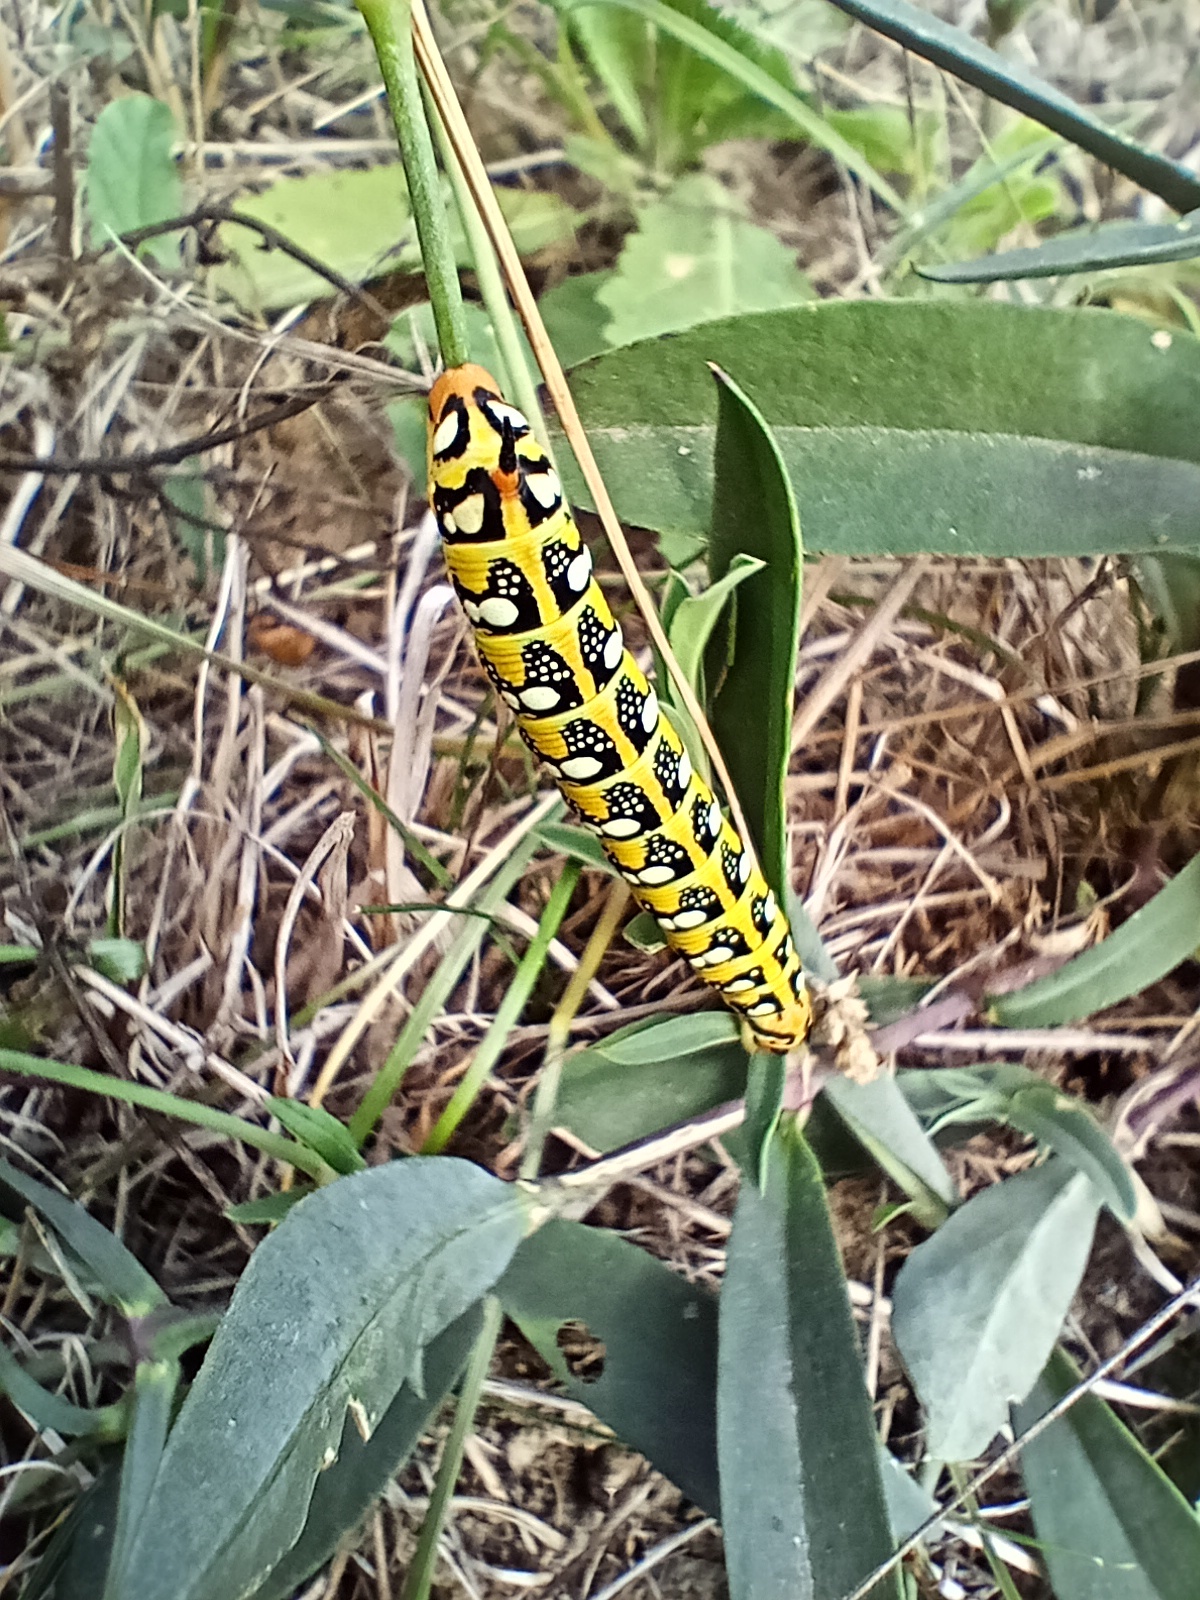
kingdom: Animalia
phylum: Arthropoda
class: Insecta
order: Lepidoptera
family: Sphingidae
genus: Hyles
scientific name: Hyles euphorbiae
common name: Spurge hawk-moth
